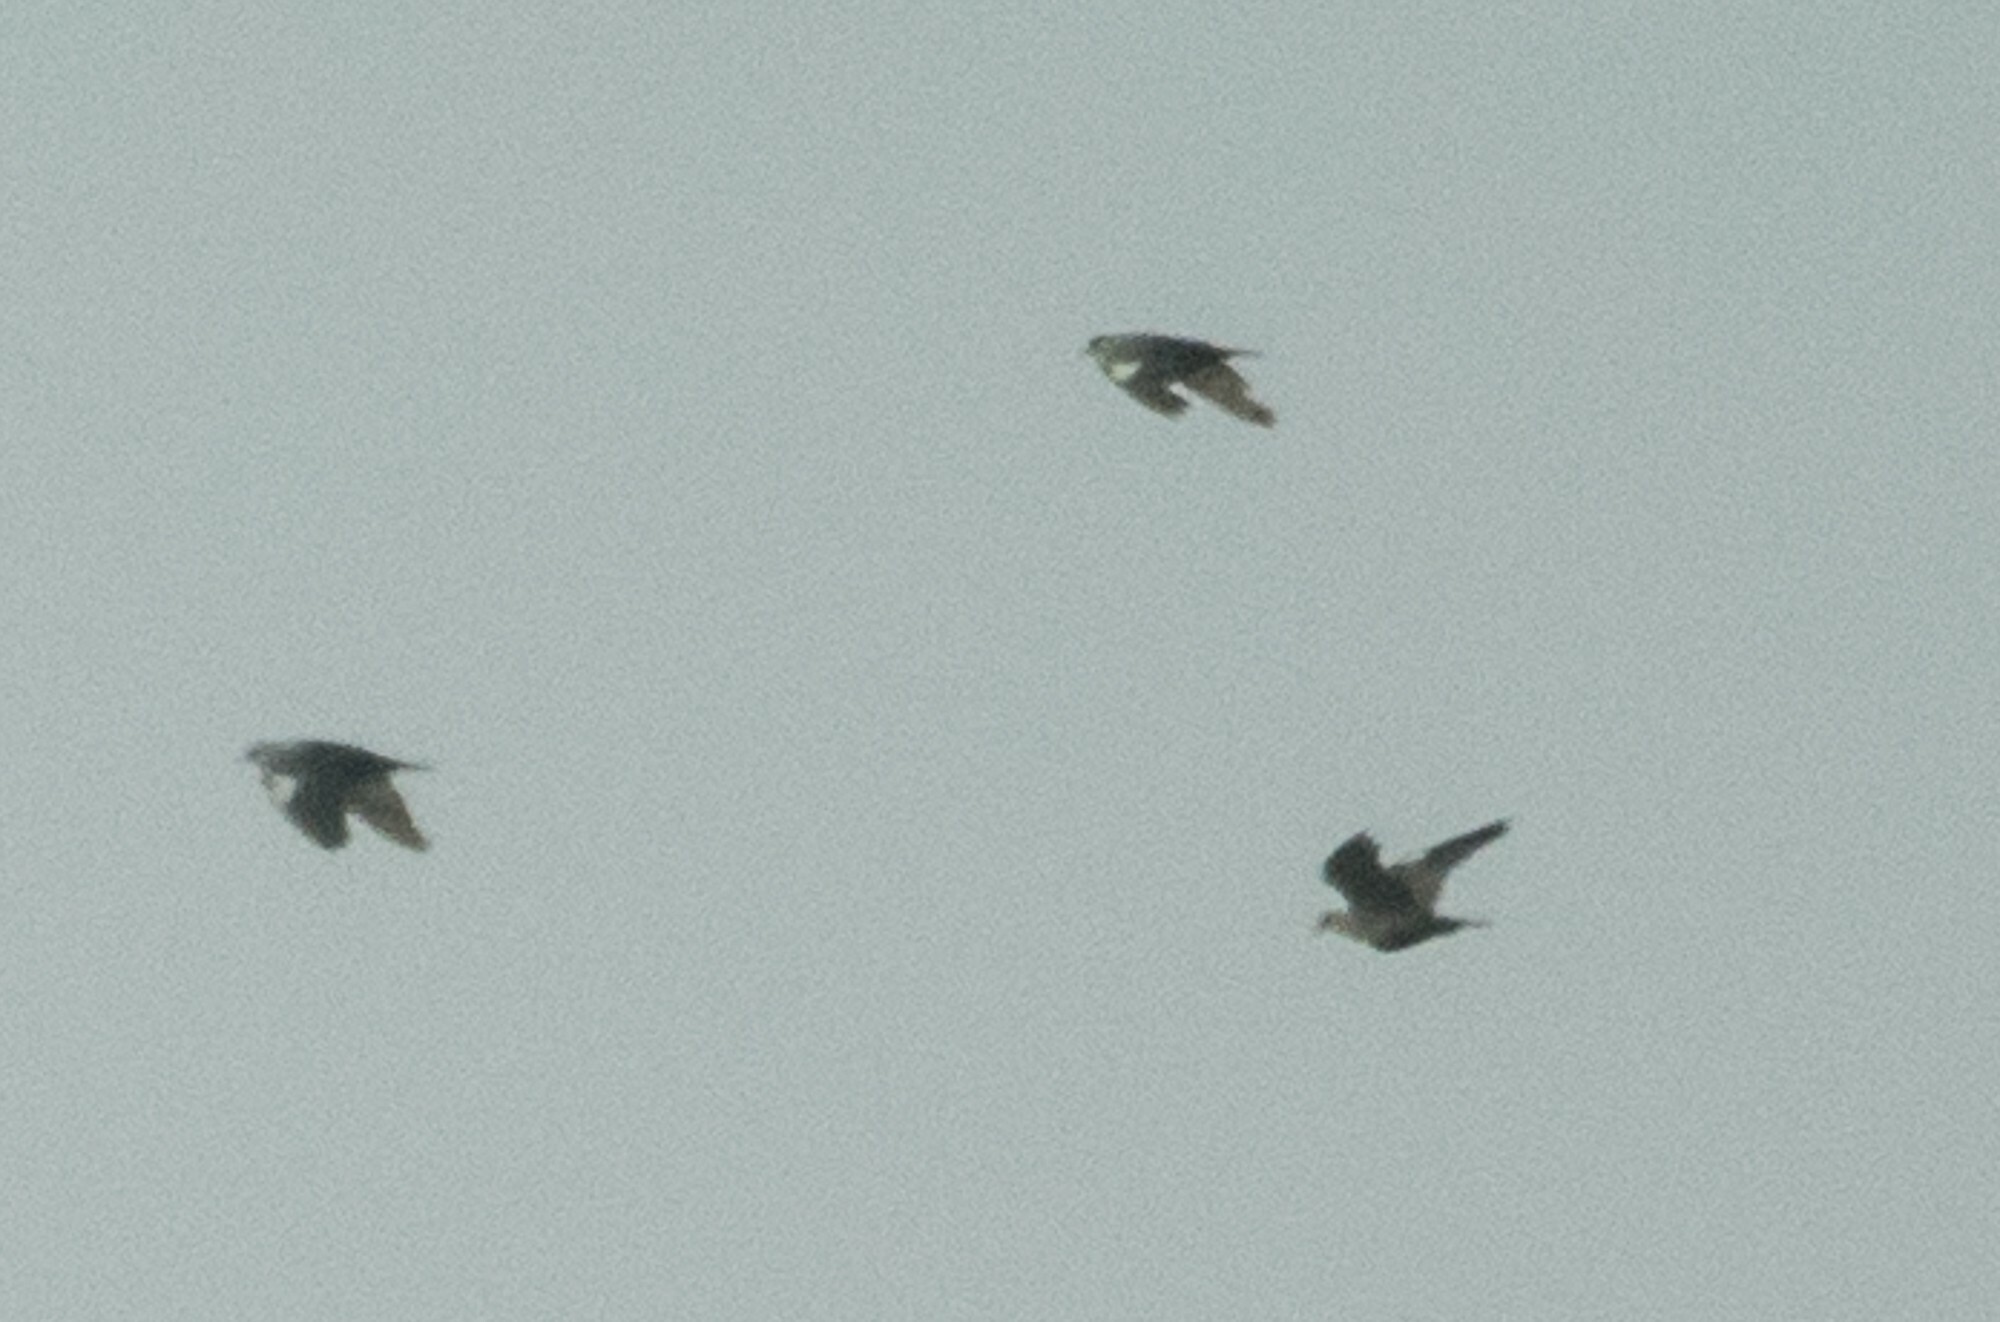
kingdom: Animalia
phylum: Chordata
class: Aves
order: Columbiformes
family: Columbidae
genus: Columba
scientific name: Columba albitorques
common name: White-collared pigeon
